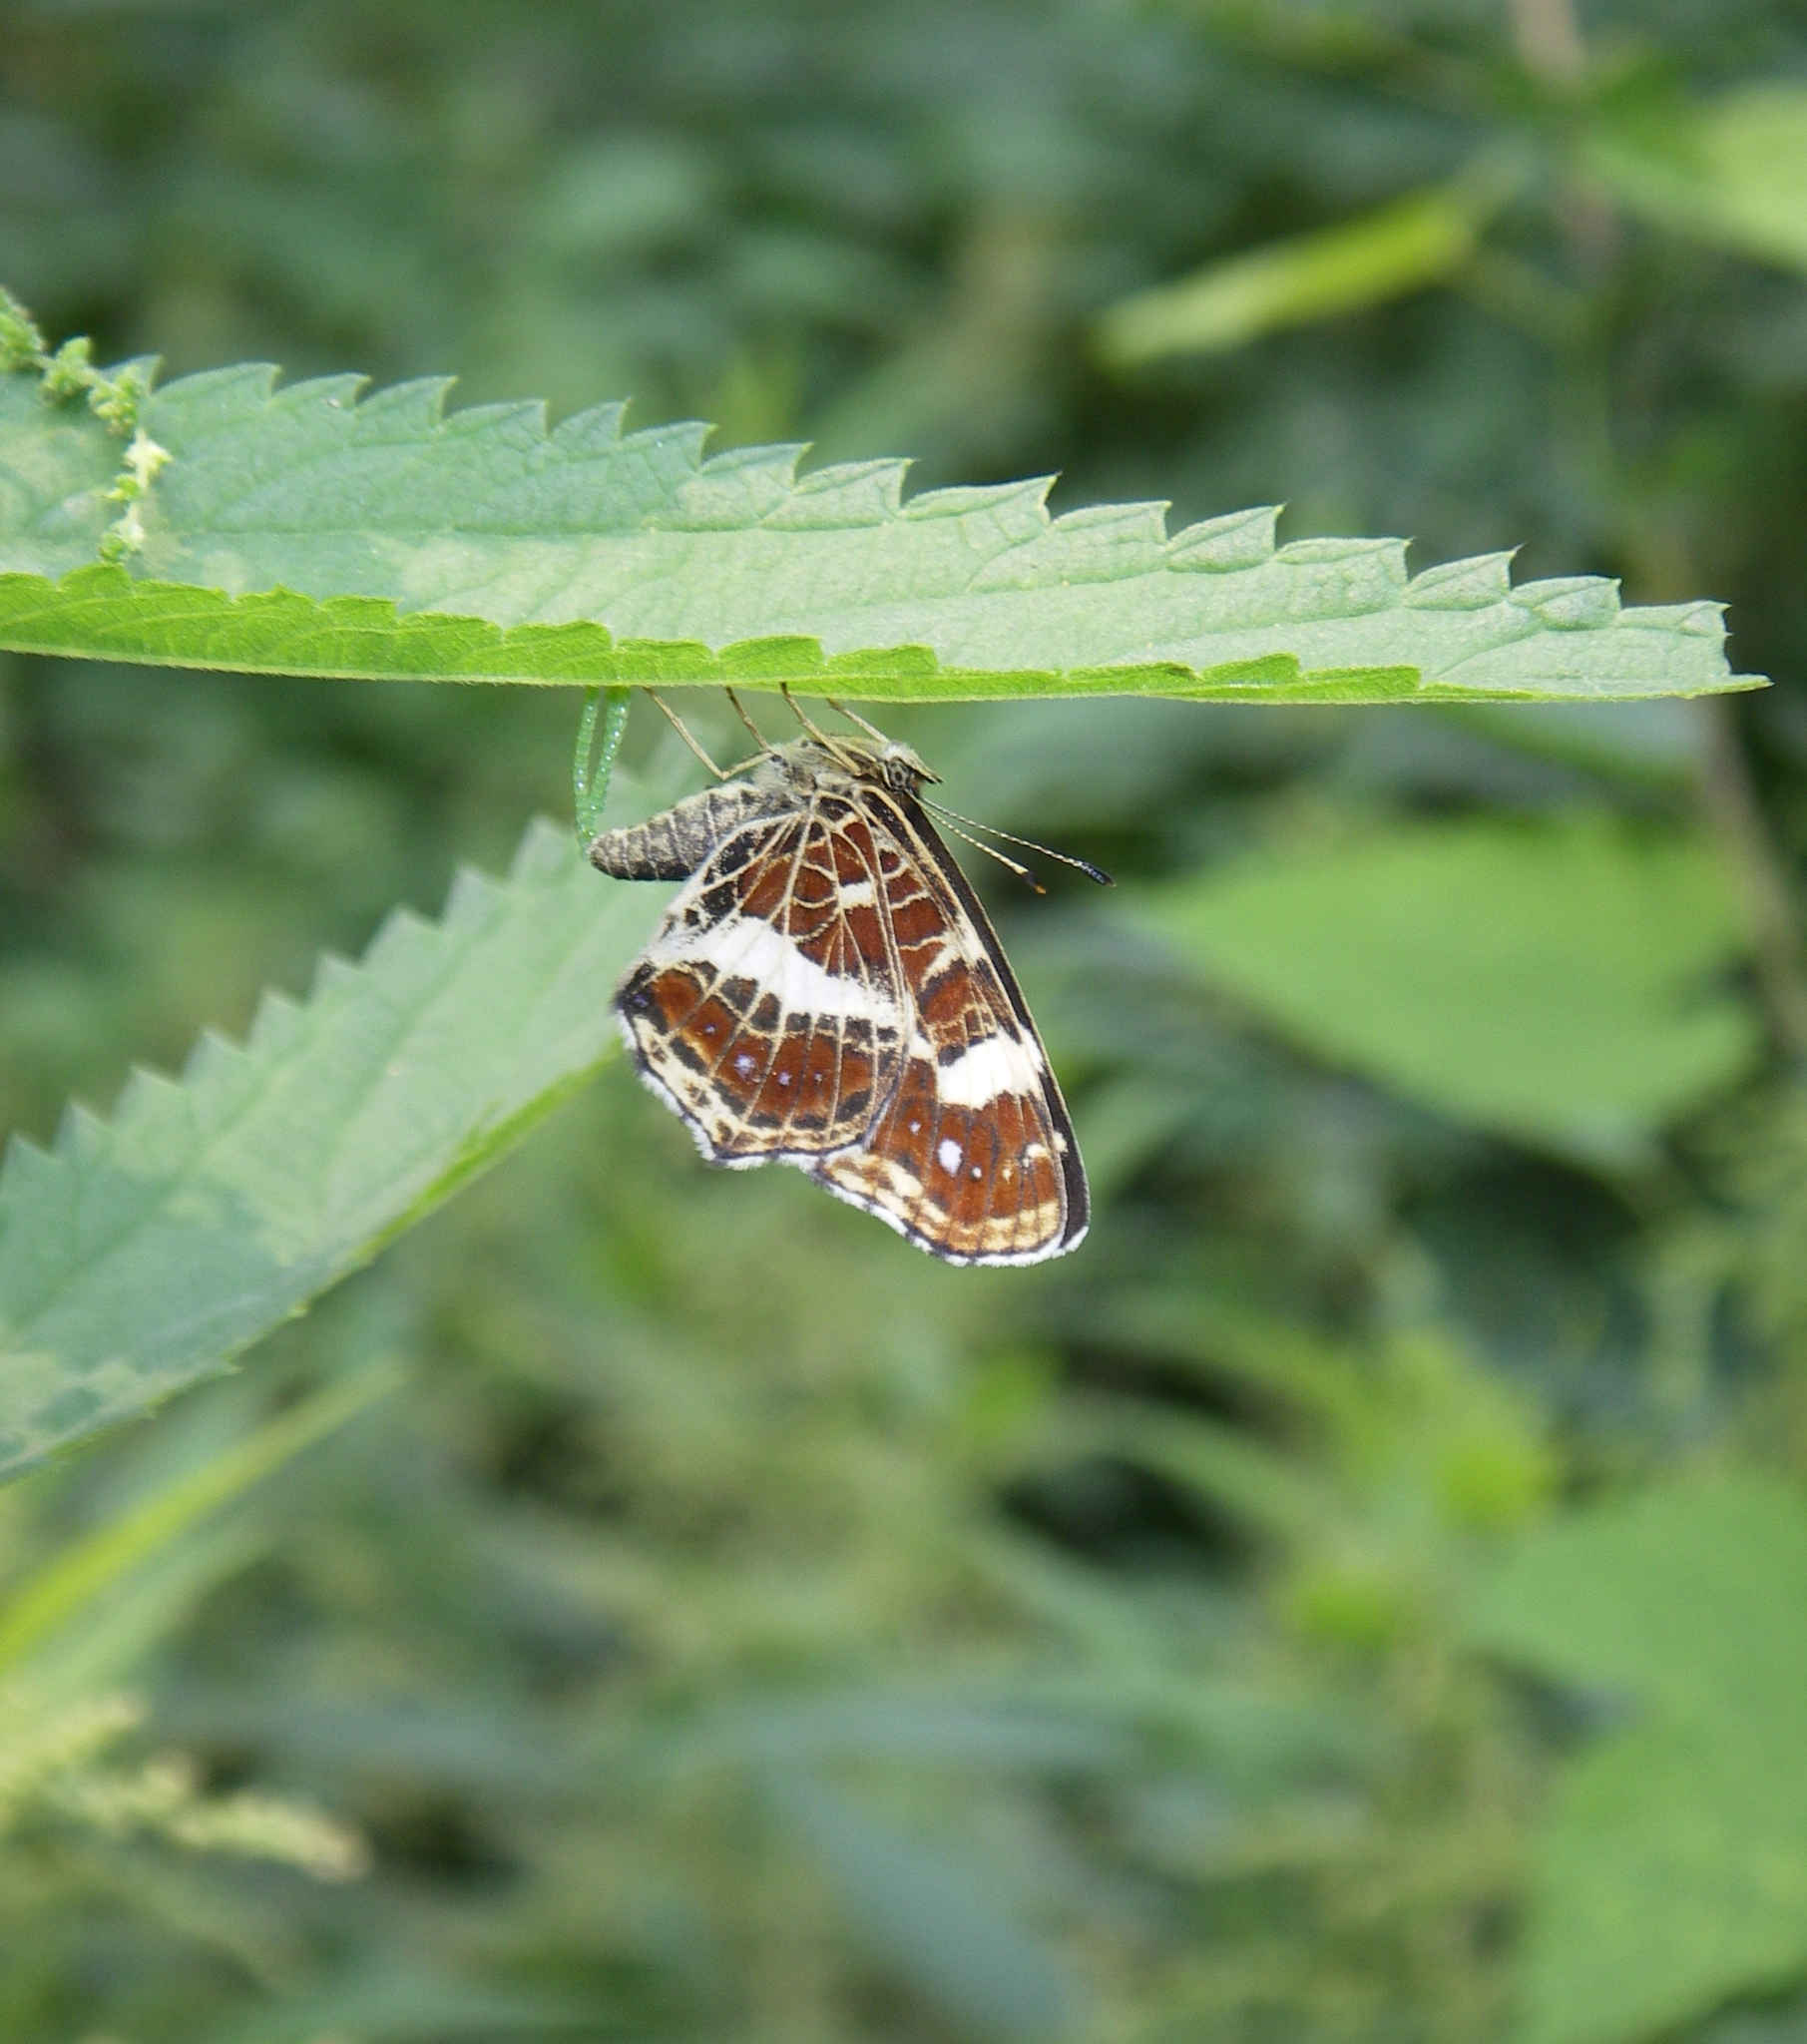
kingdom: Animalia
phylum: Arthropoda
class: Insecta
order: Lepidoptera
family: Nymphalidae
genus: Araschnia
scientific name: Araschnia levana
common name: Map butterfly
